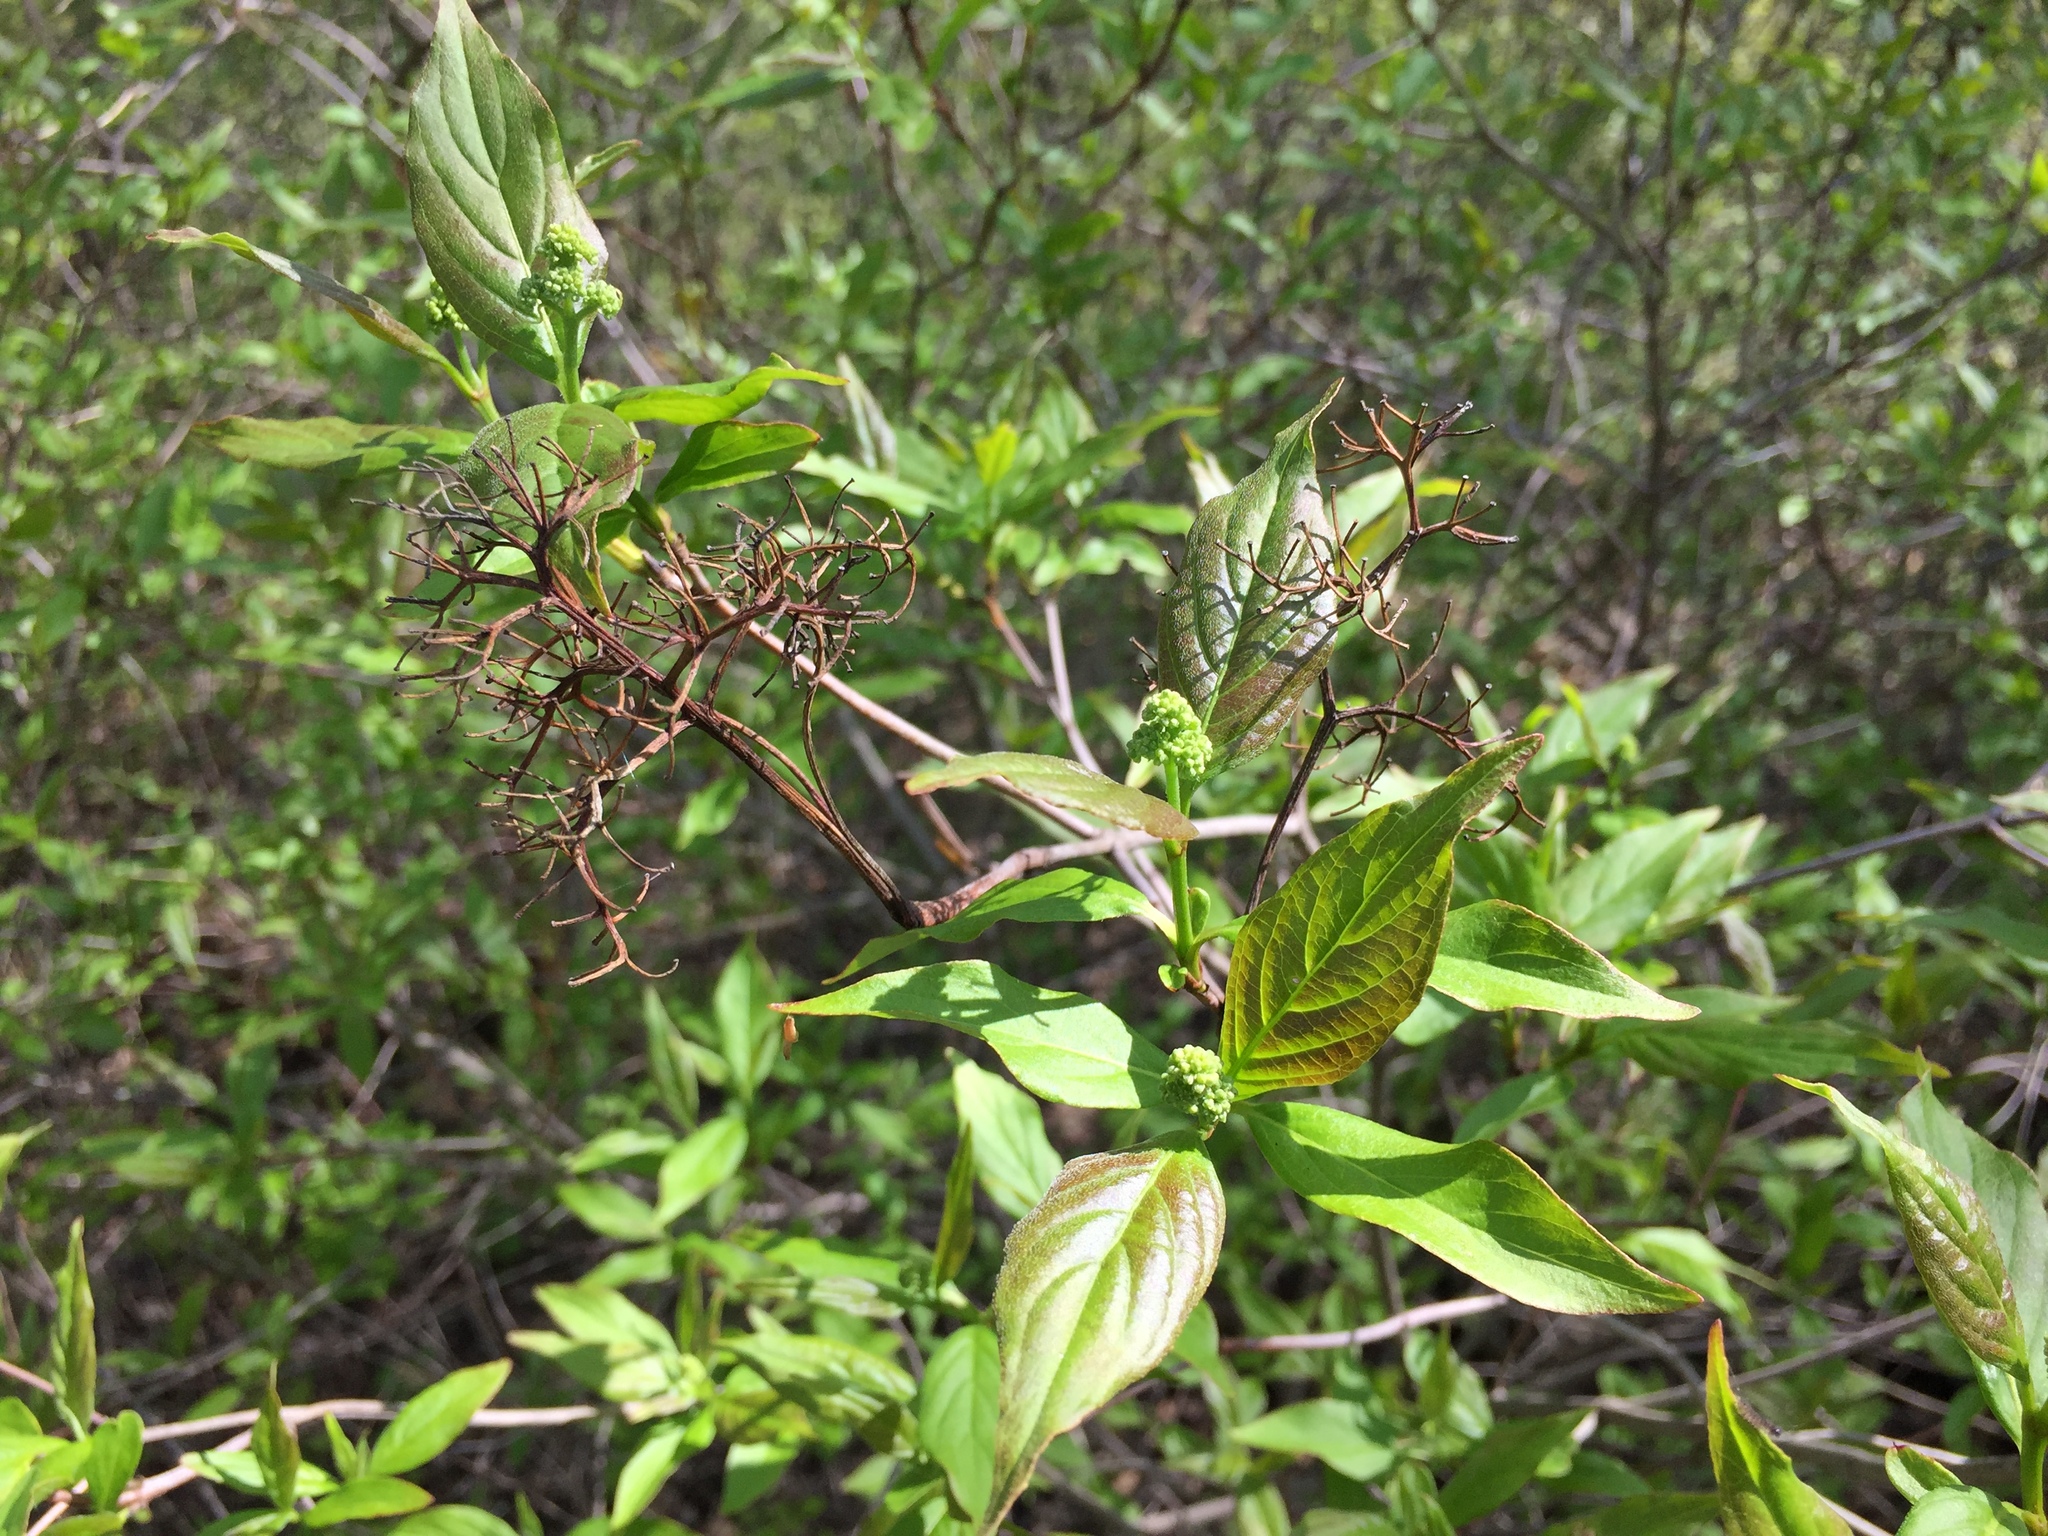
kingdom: Plantae
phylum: Tracheophyta
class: Magnoliopsida
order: Cornales
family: Cornaceae
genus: Cornus
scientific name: Cornus racemosa
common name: Panicled dogwood
